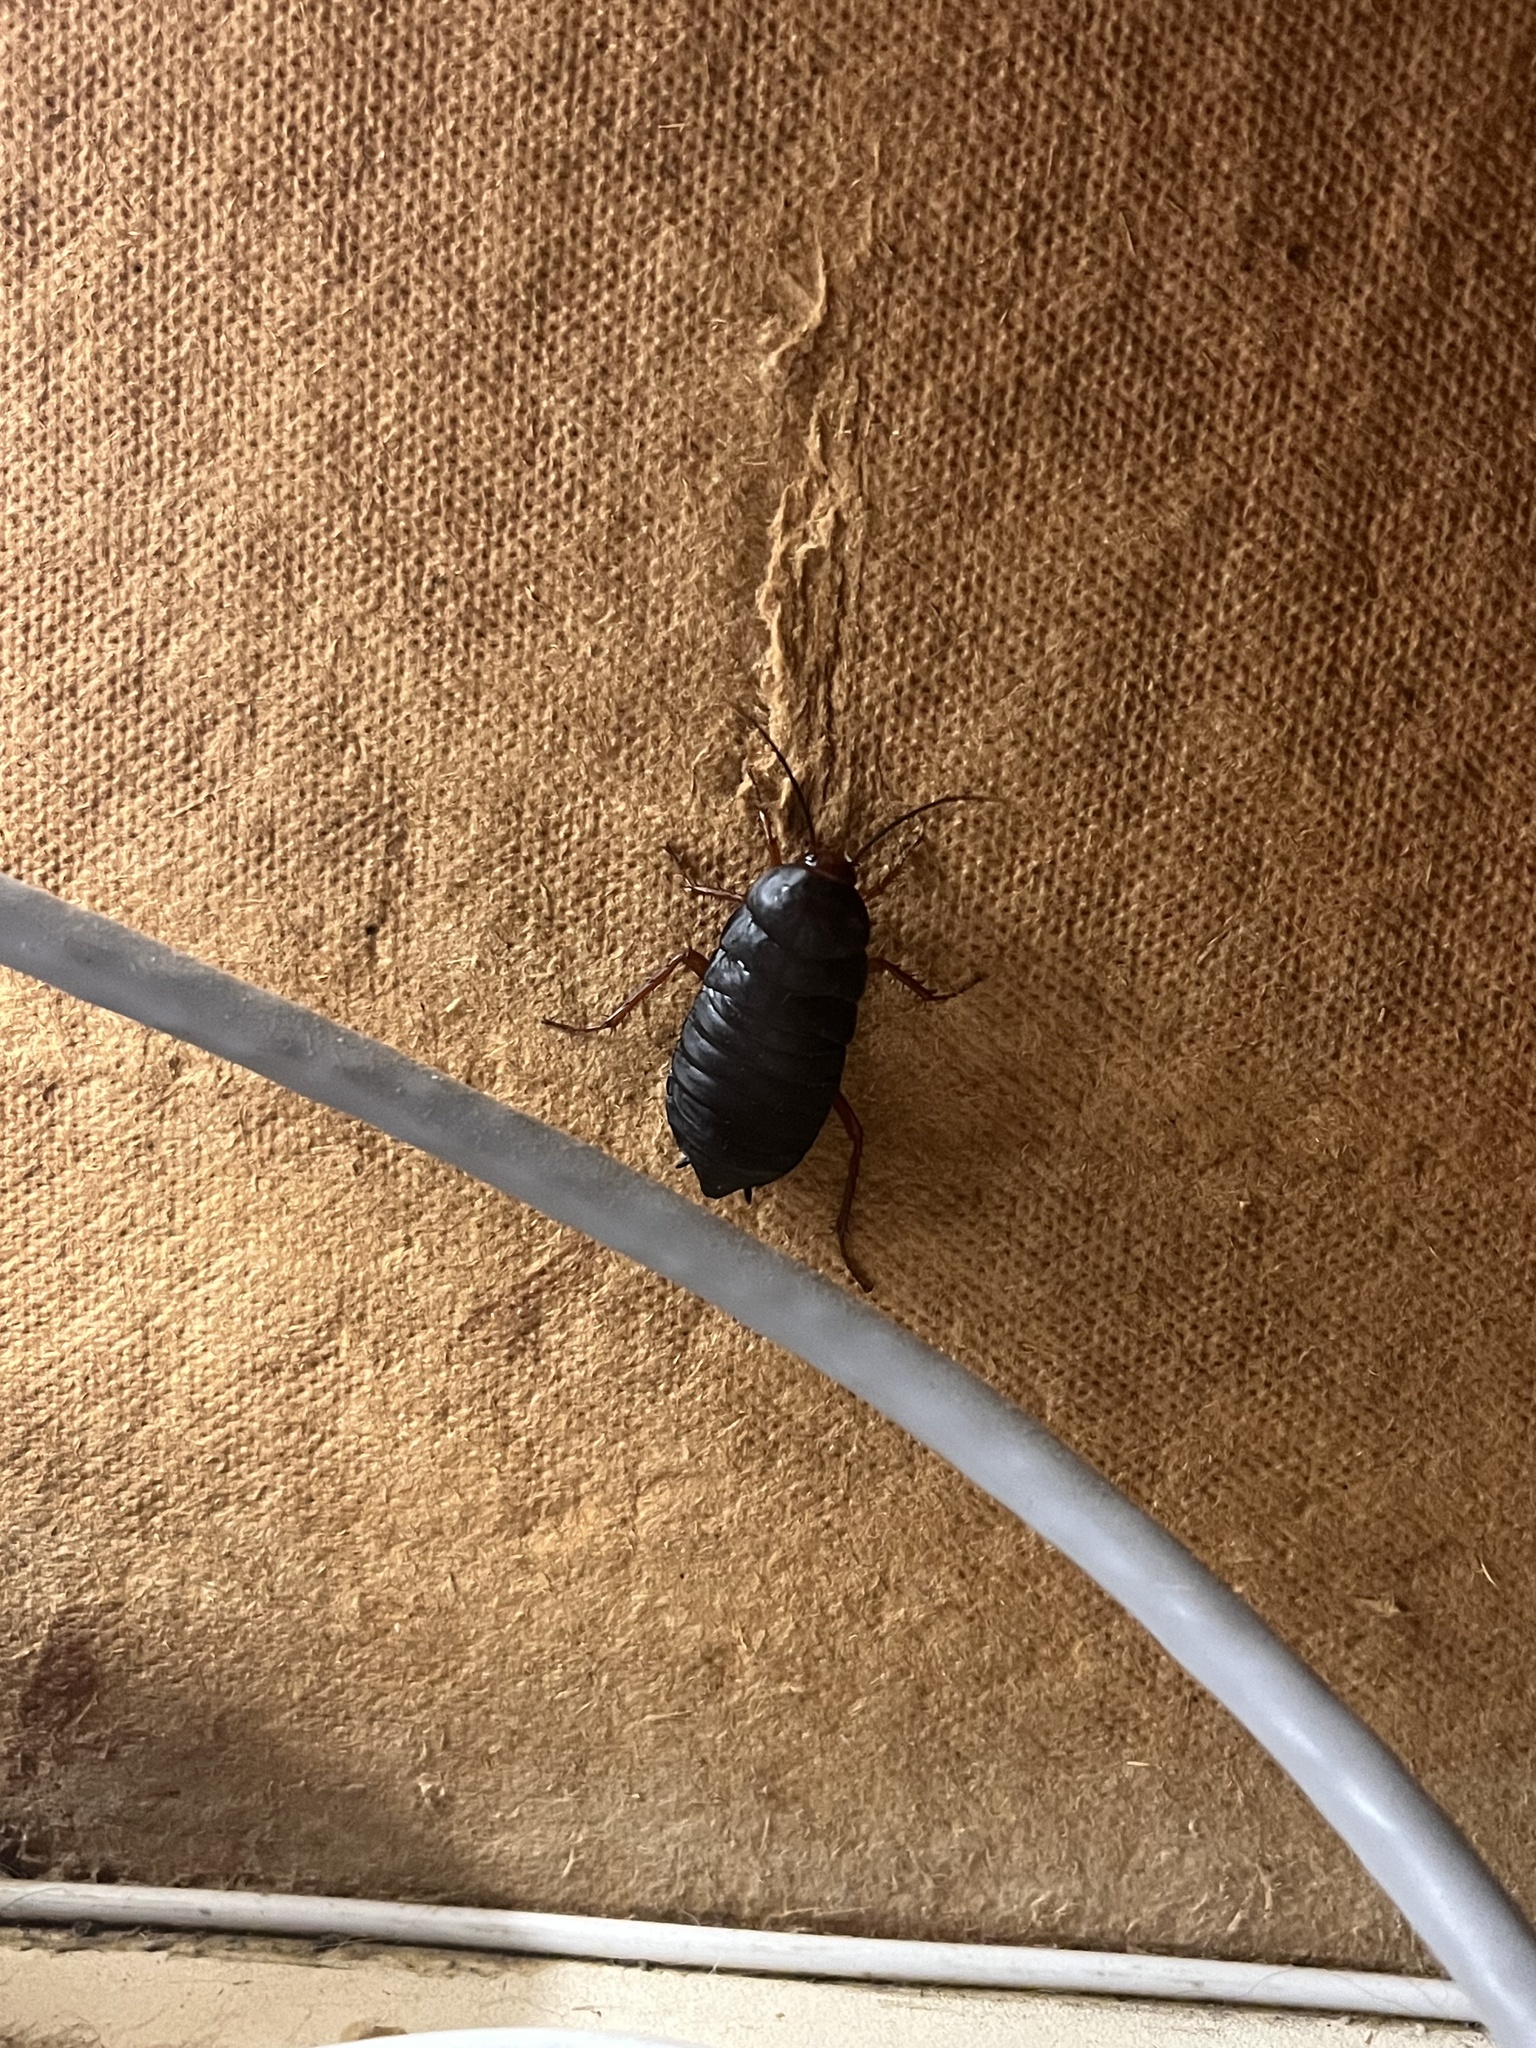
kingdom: Animalia
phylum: Arthropoda
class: Insecta
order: Blattodea
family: Blattidae
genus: Deropeltis
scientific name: Deropeltis erythrocephala
